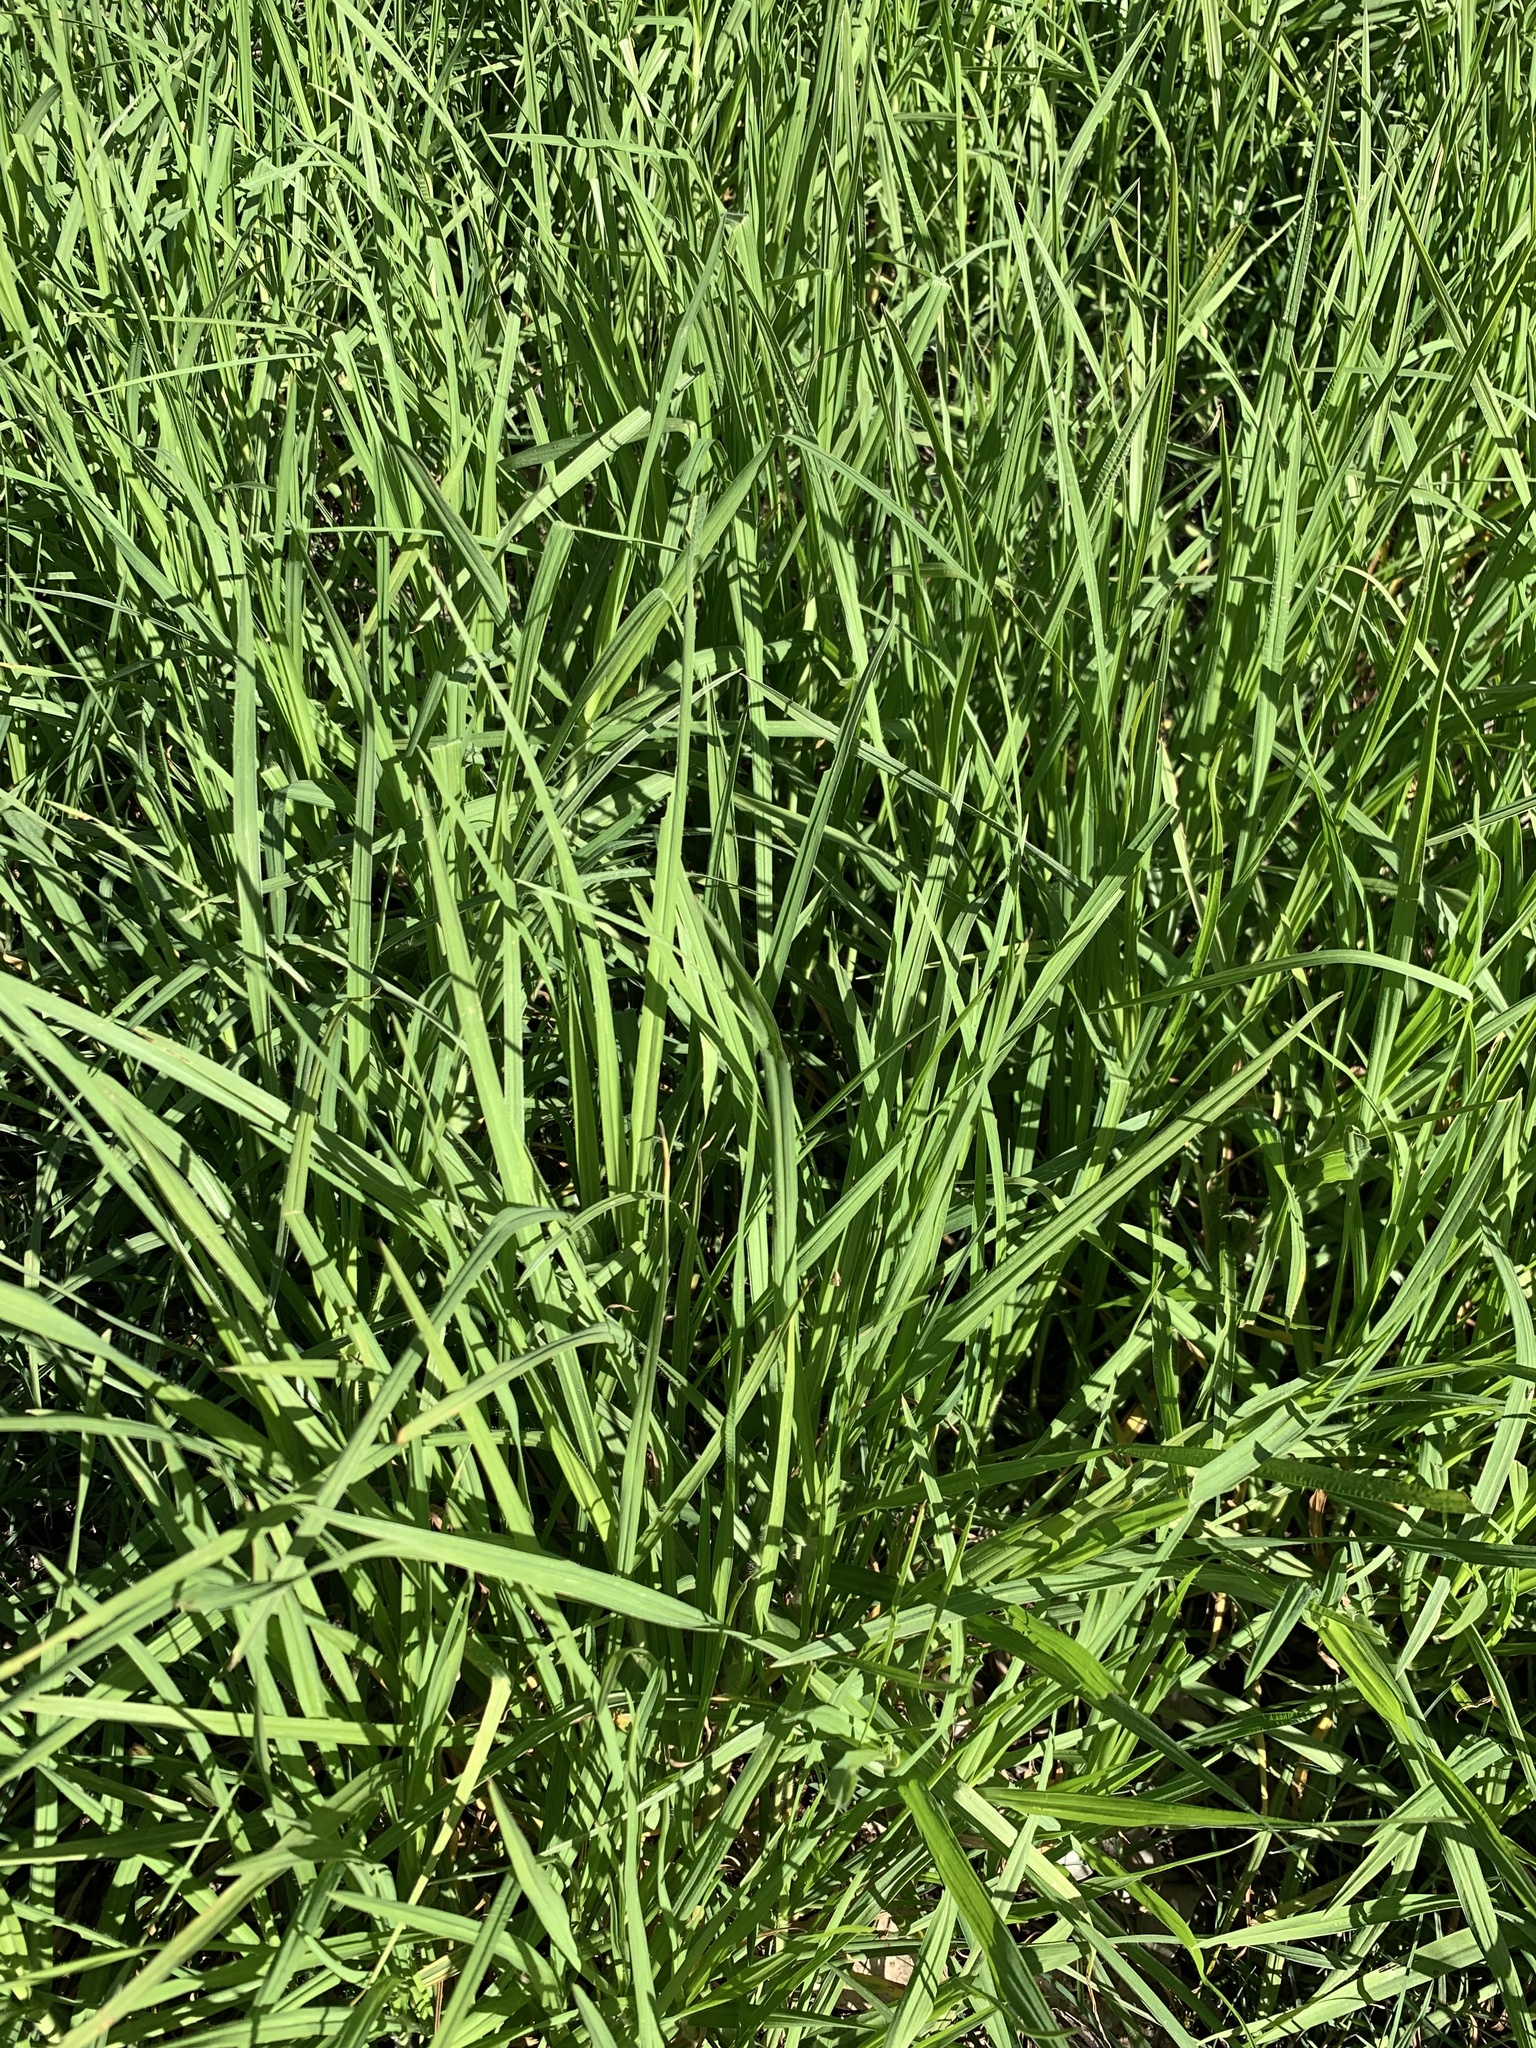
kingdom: Plantae
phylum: Tracheophyta
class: Liliopsida
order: Poales
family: Poaceae
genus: Cenchrus
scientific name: Cenchrus clandestinus
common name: Kikuyugrass
